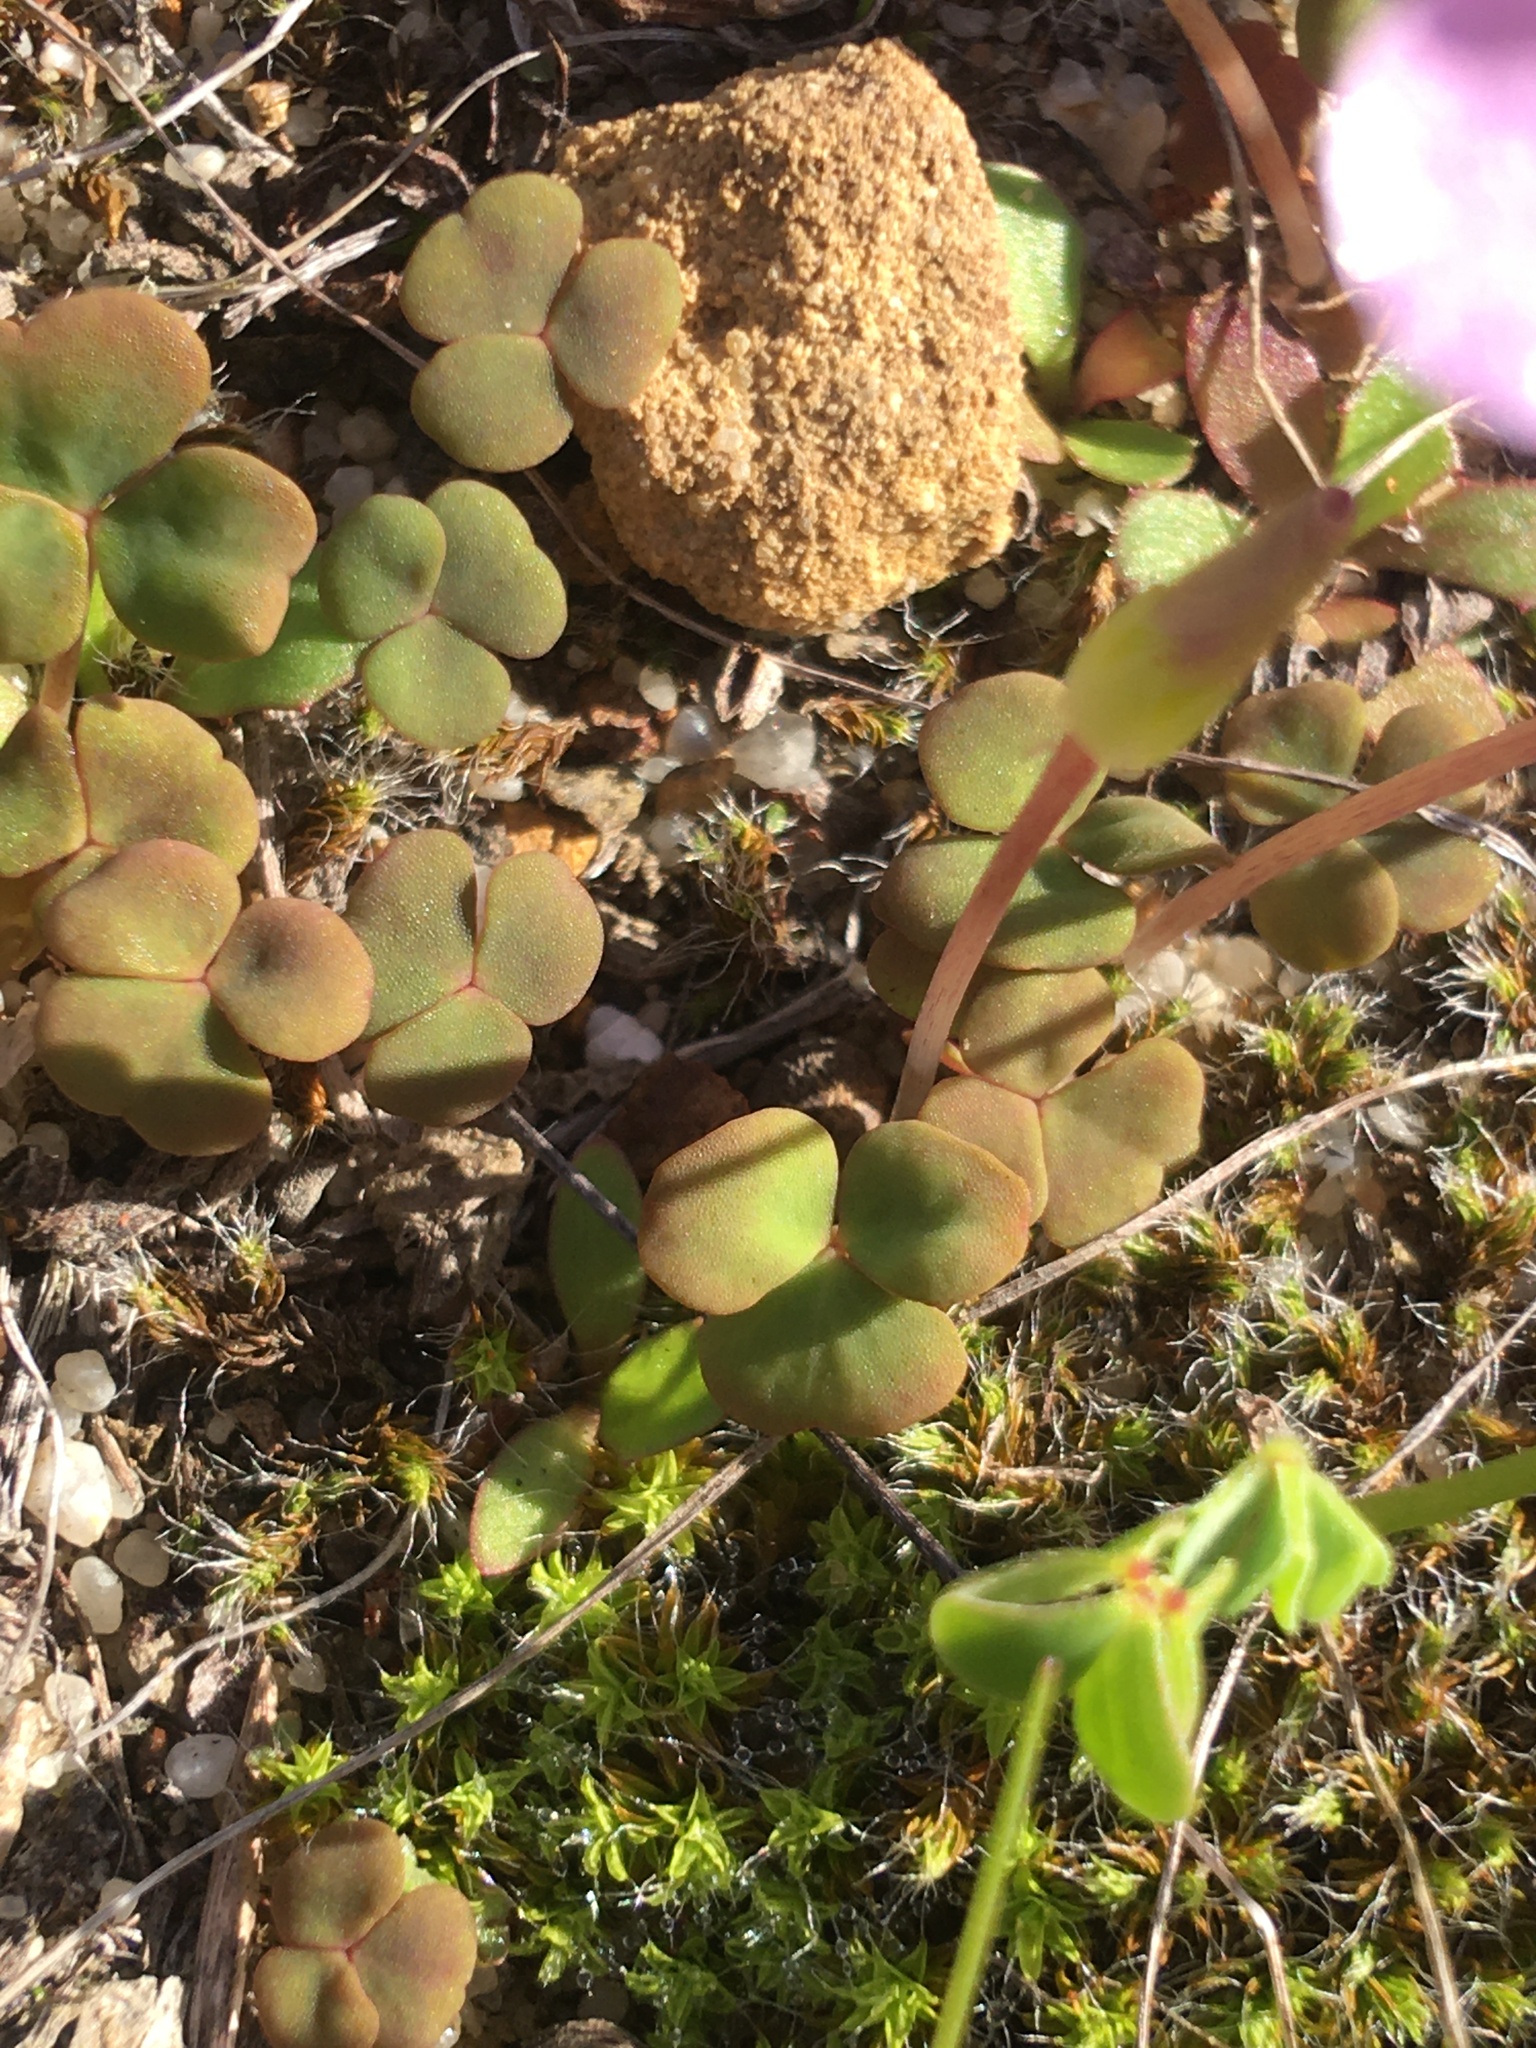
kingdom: Plantae
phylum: Tracheophyta
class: Magnoliopsida
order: Oxalidales
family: Oxalidaceae
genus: Oxalis
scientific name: Oxalis depressa
